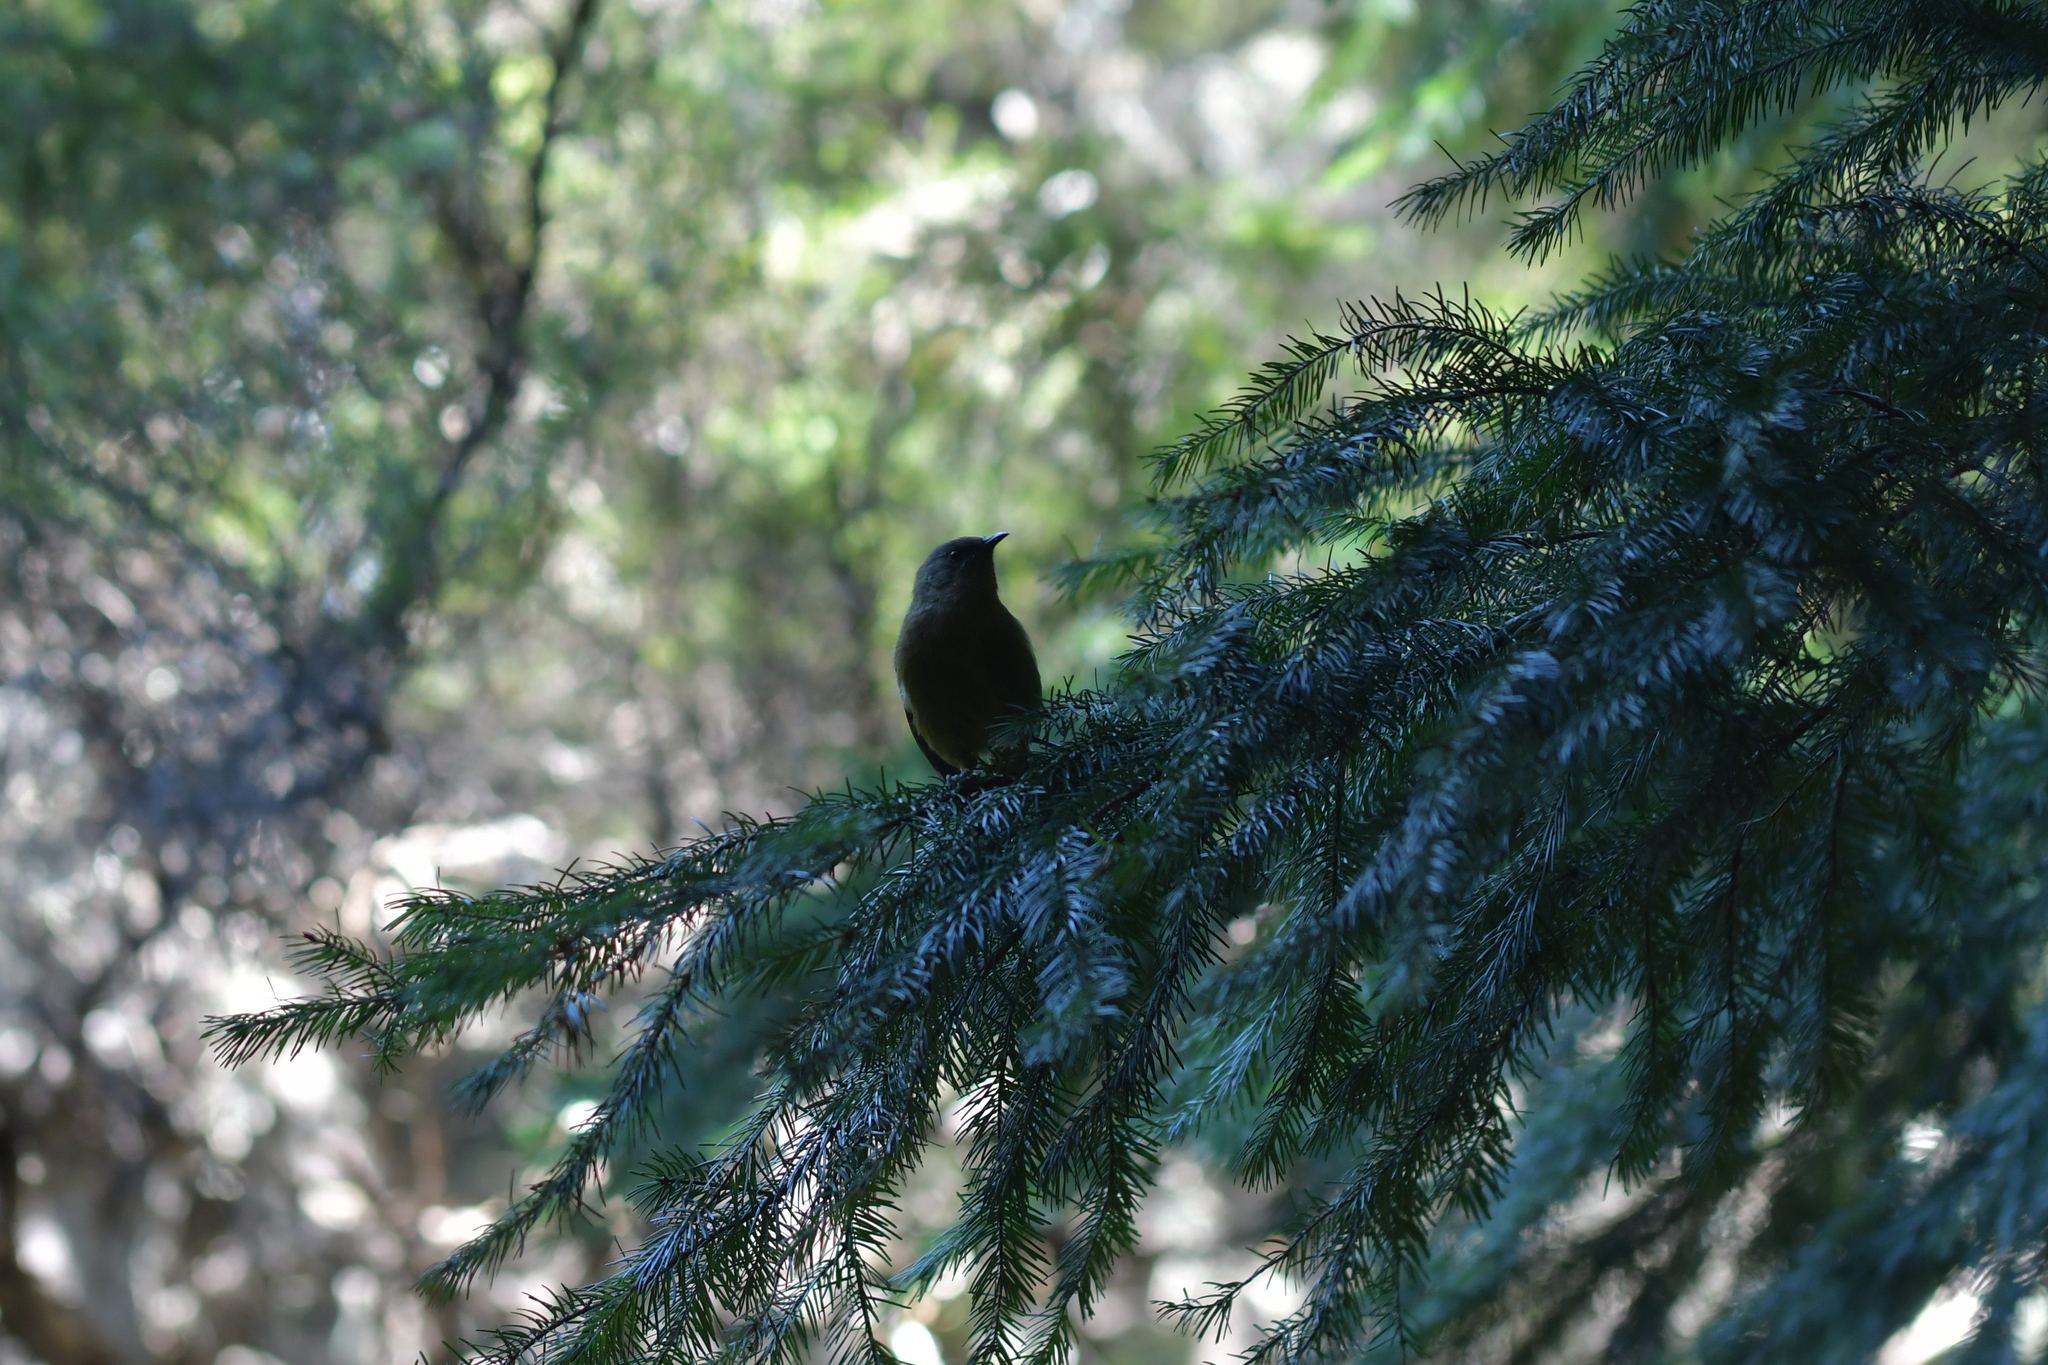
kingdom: Animalia
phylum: Chordata
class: Aves
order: Passeriformes
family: Meliphagidae
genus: Anthornis
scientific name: Anthornis melanura
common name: New zealand bellbird
